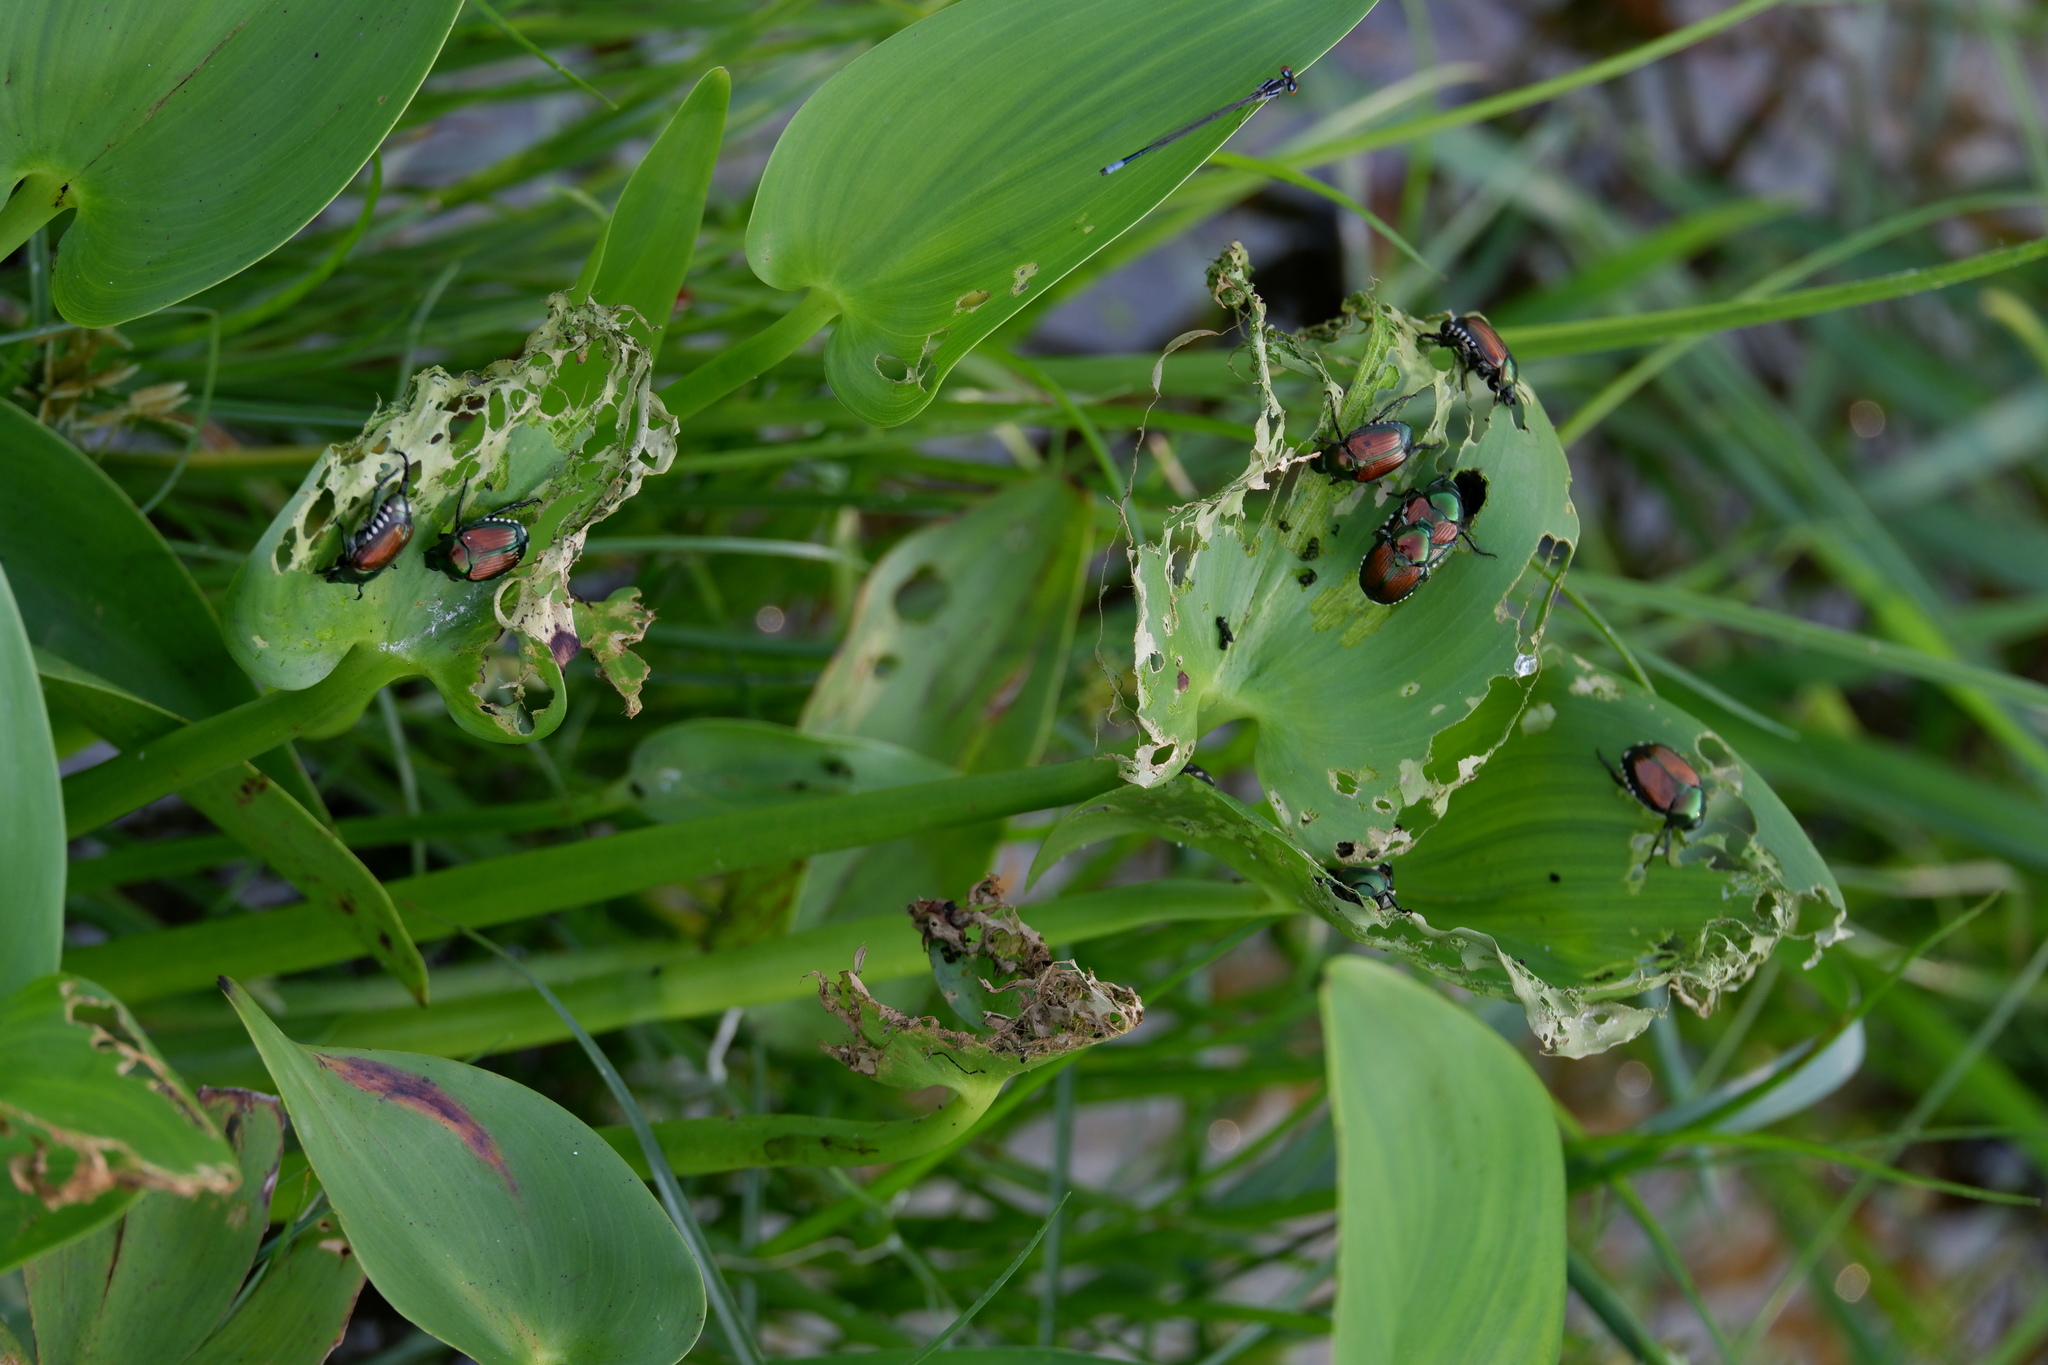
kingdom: Animalia
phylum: Arthropoda
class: Insecta
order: Coleoptera
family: Scarabaeidae
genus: Popillia
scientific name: Popillia japonica
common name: Japanese beetle
